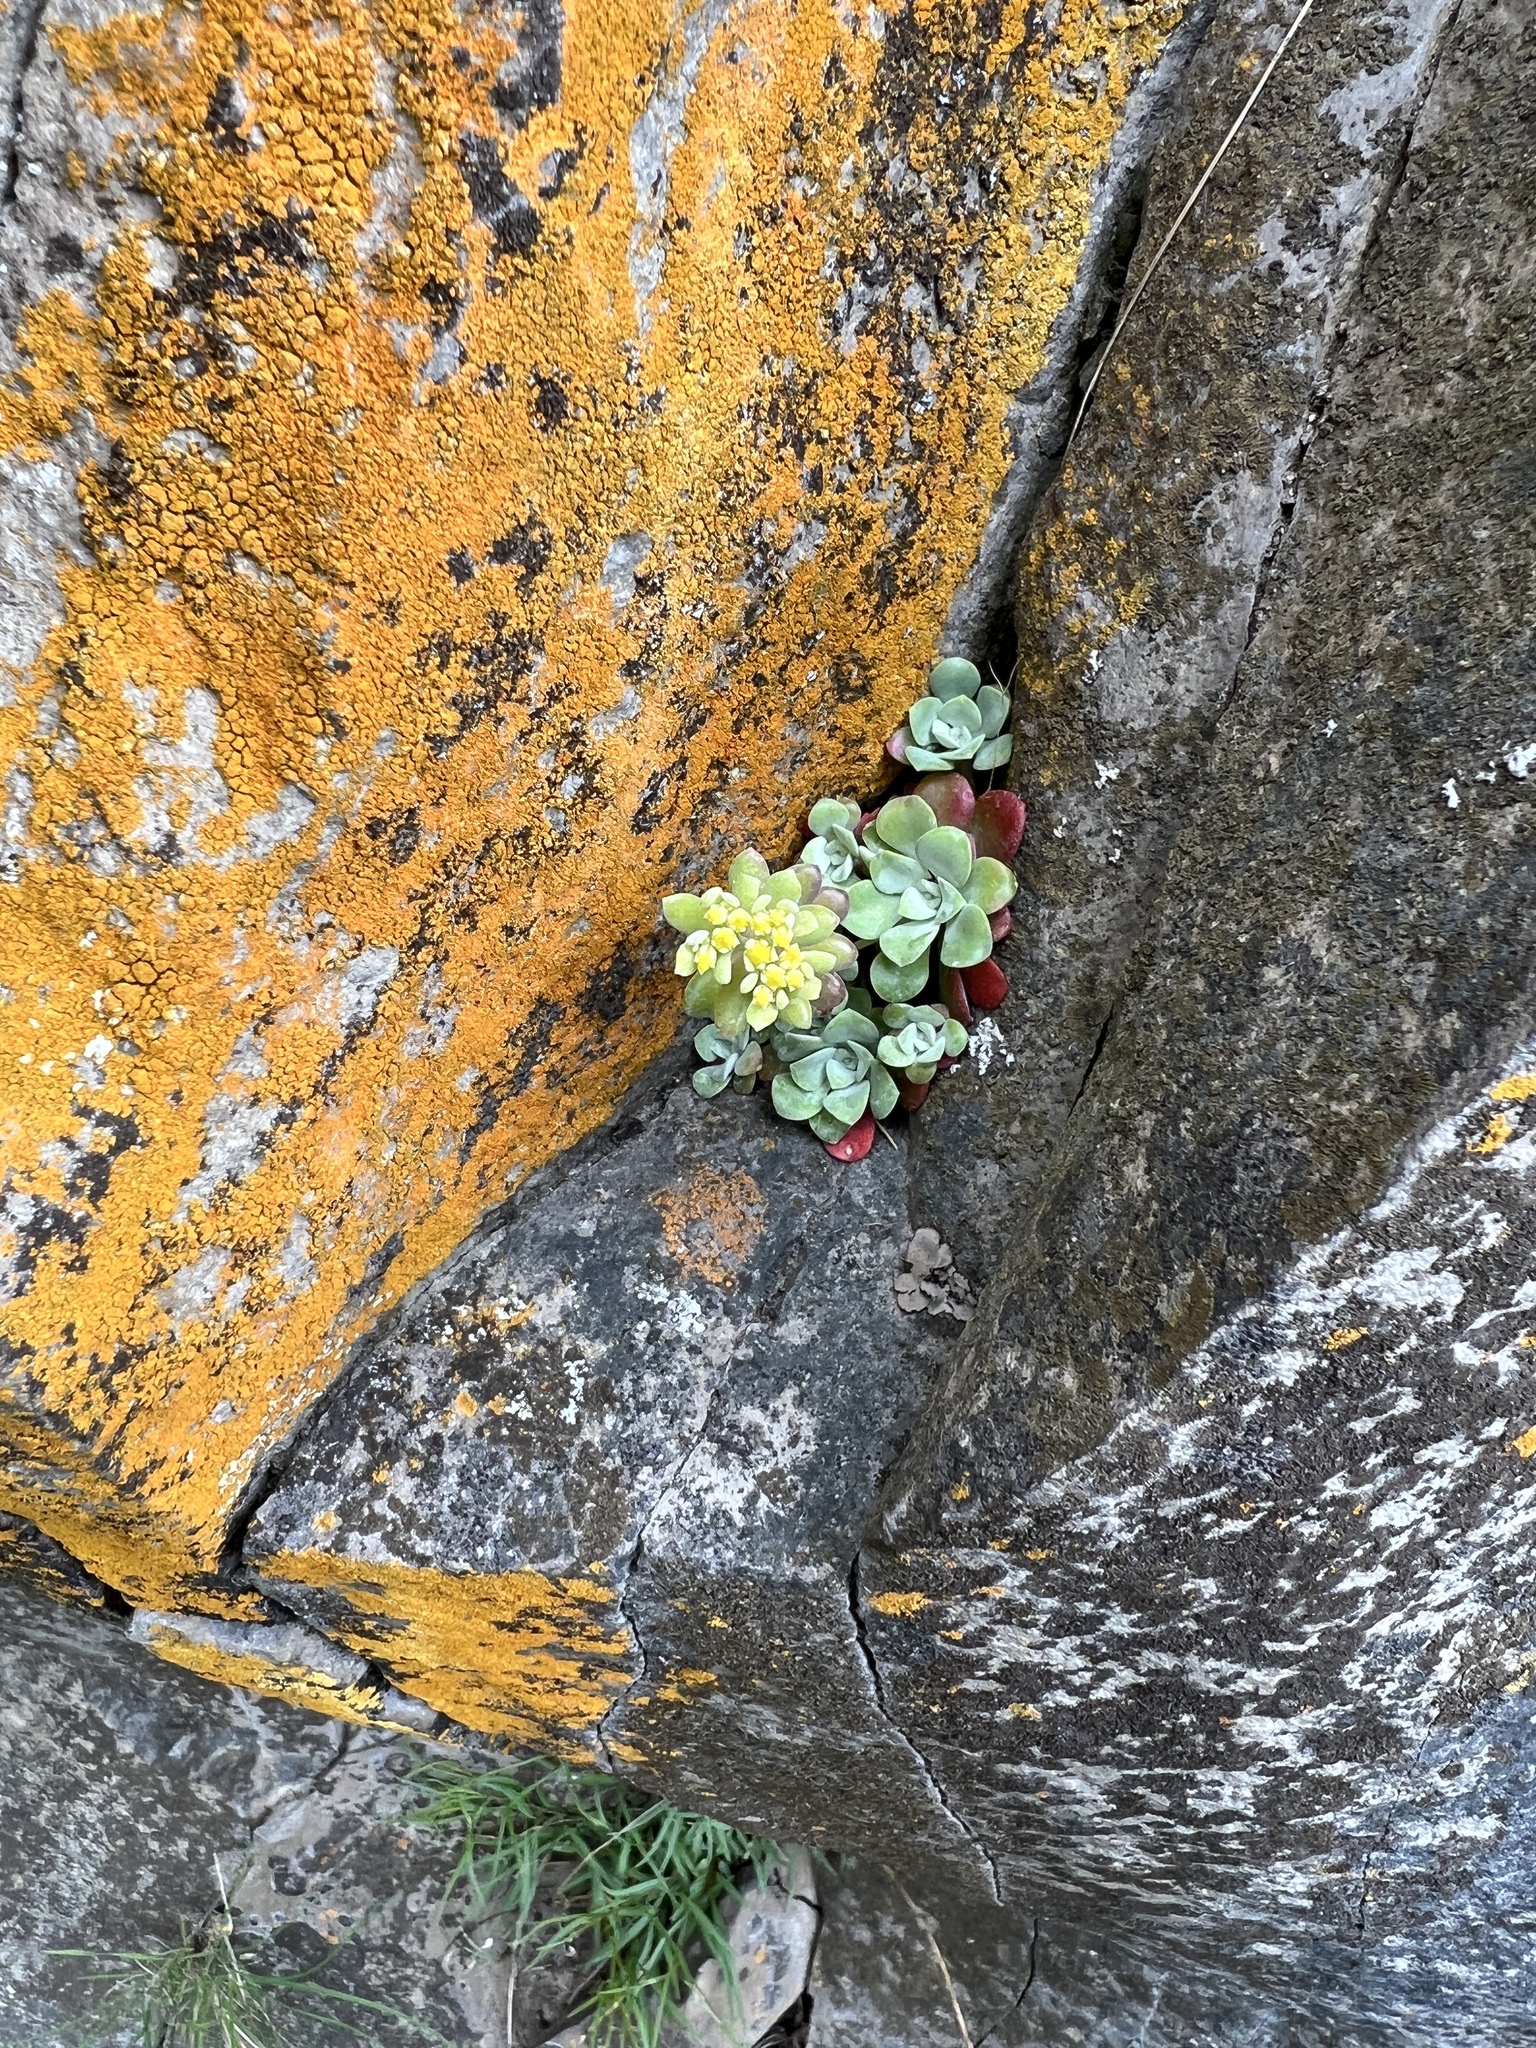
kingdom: Plantae
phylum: Tracheophyta
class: Magnoliopsida
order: Saxifragales
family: Crassulaceae
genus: Sedum
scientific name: Sedum spathulifolium
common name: Colorado stonecrop
